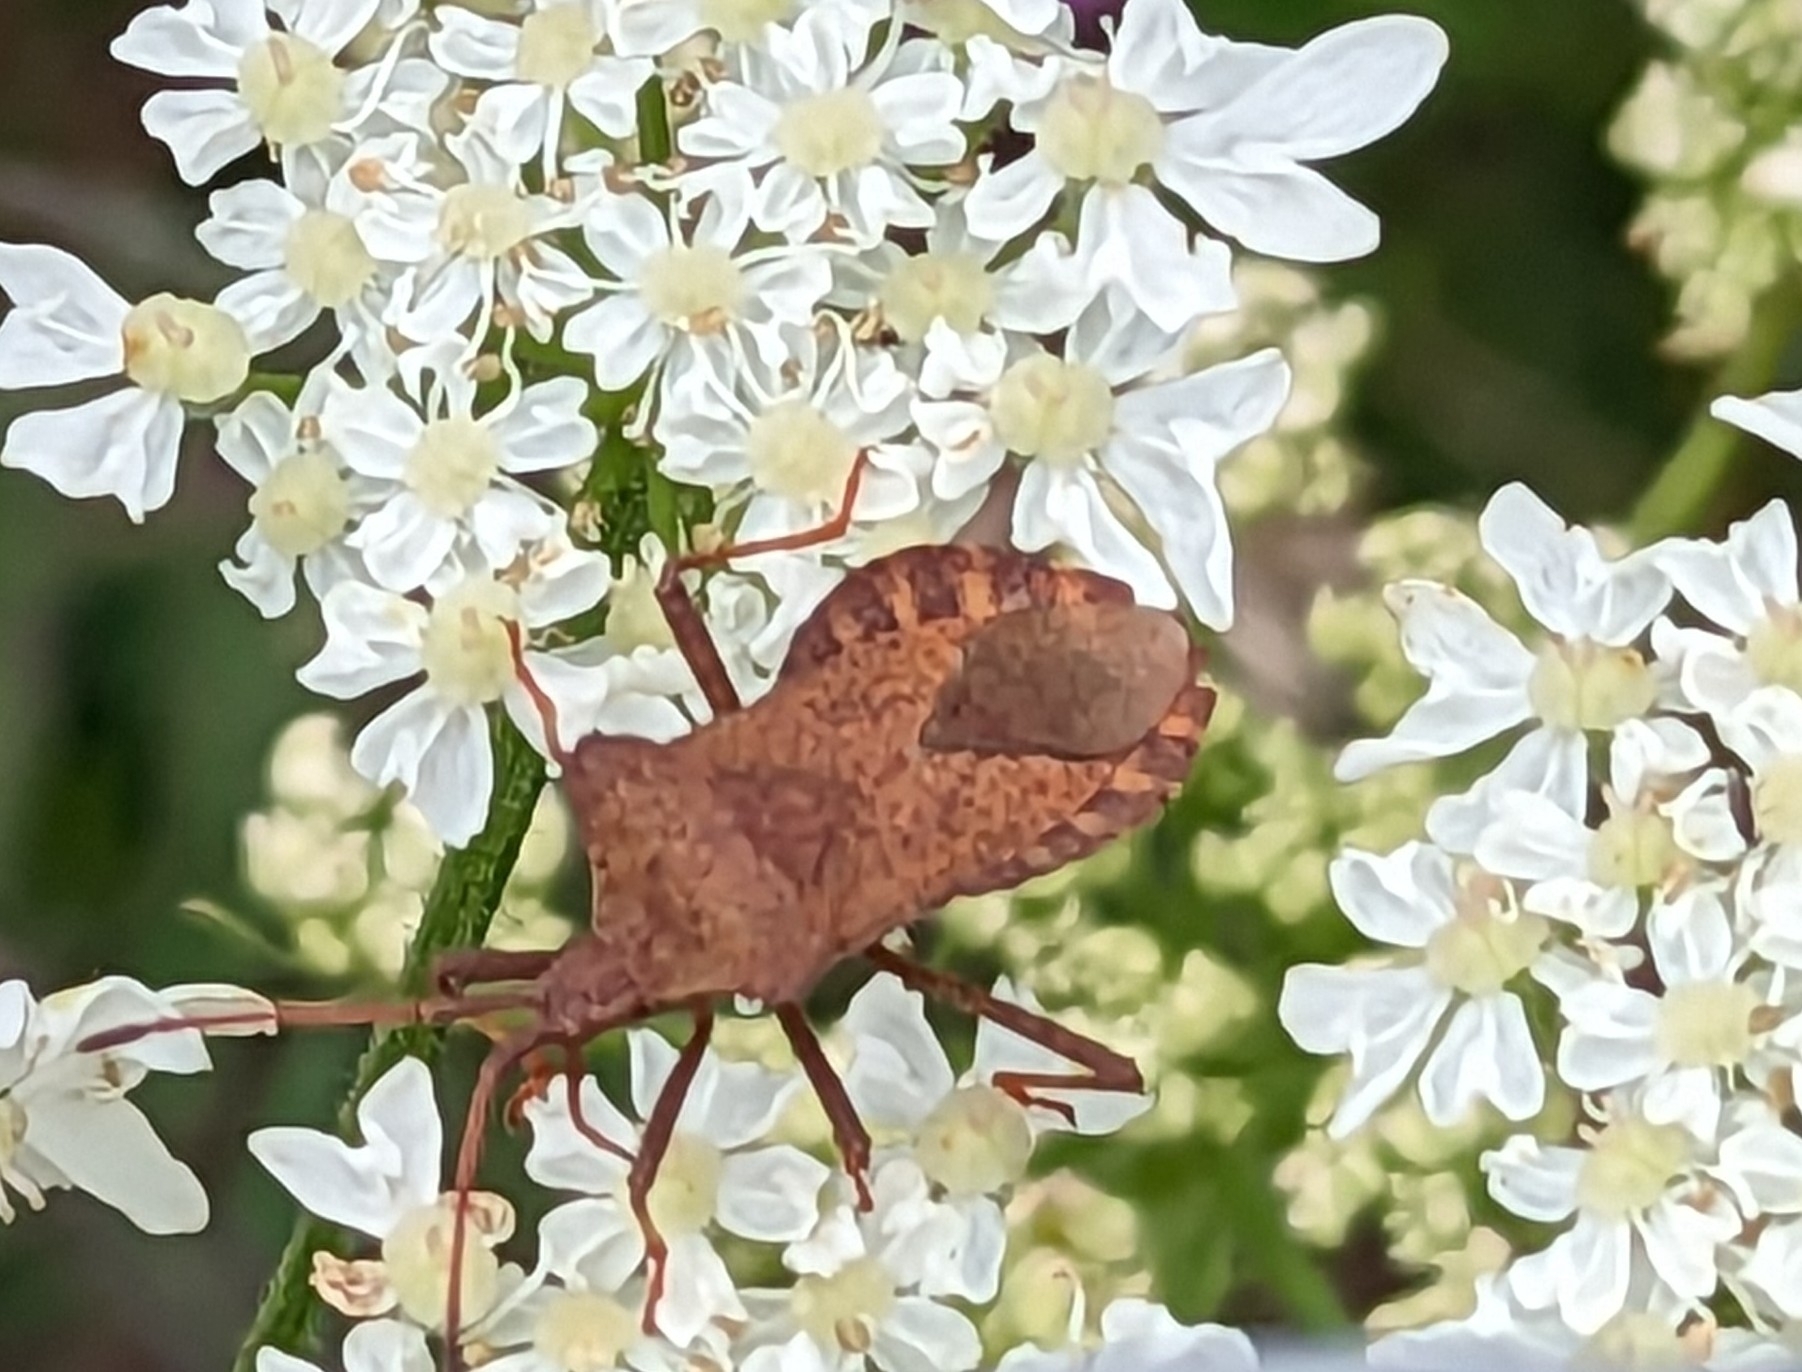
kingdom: Animalia
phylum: Arthropoda
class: Insecta
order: Hemiptera
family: Coreidae
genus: Coreus
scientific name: Coreus marginatus
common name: Dock bug
